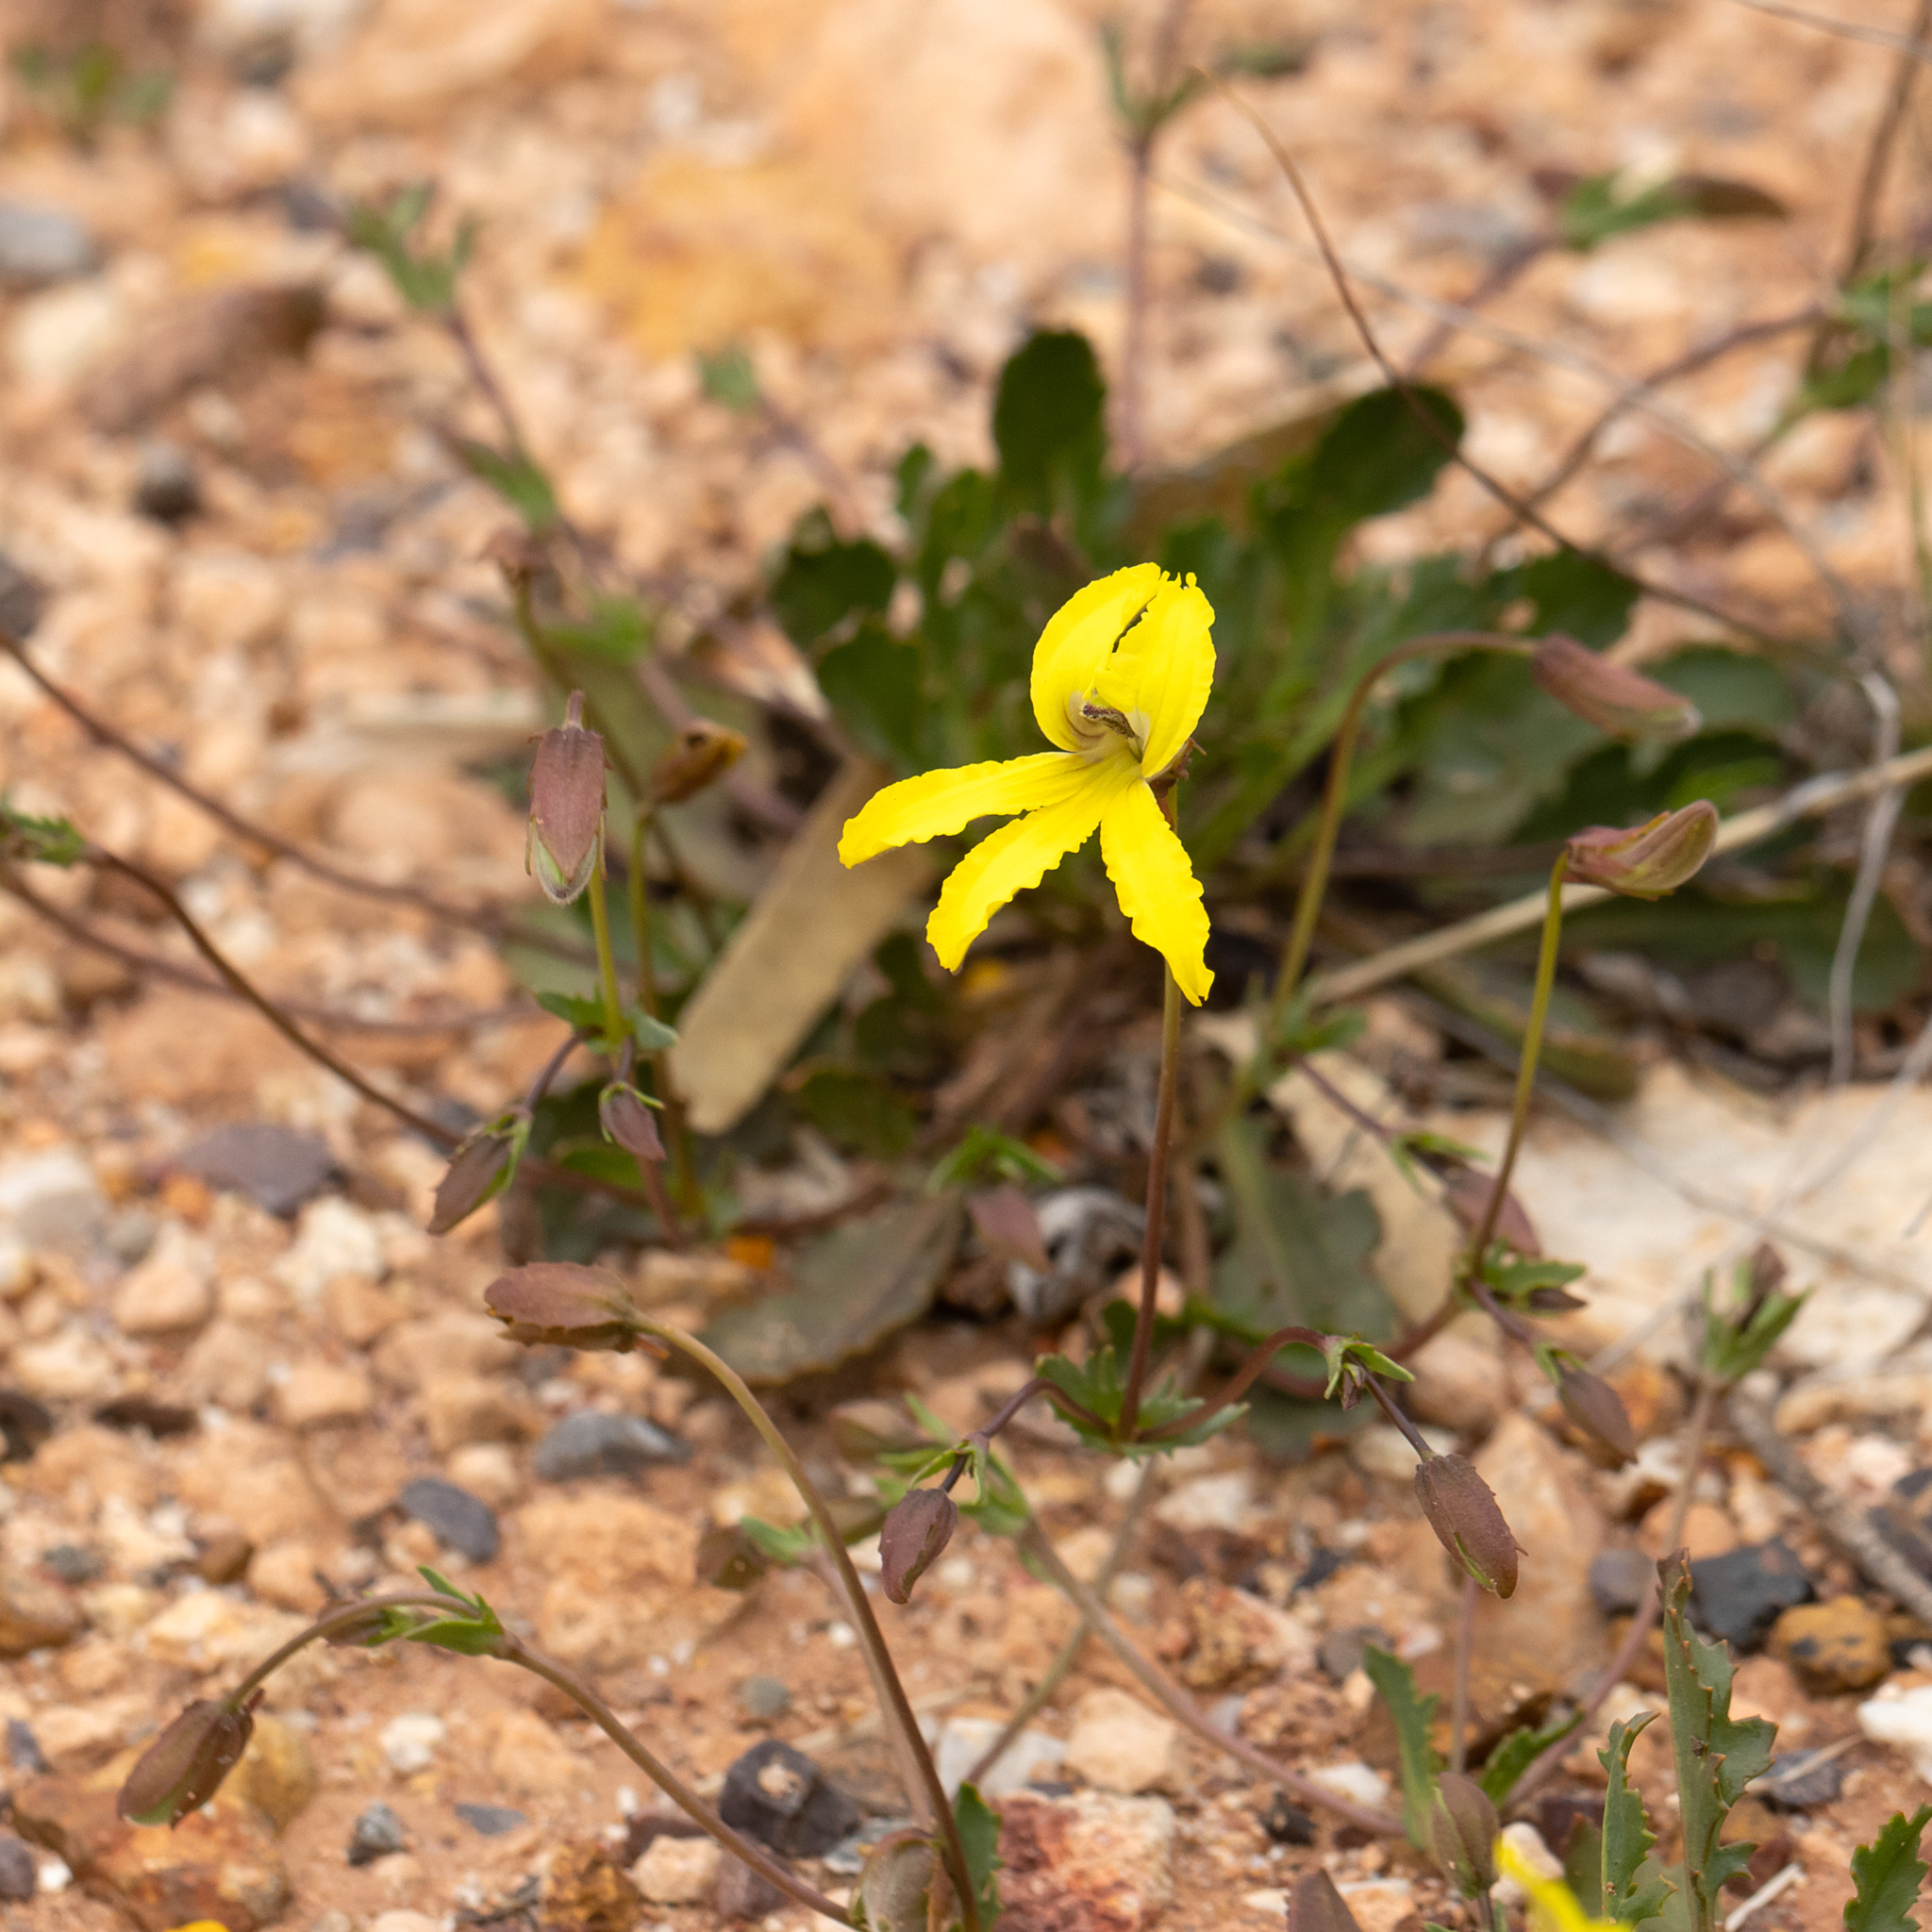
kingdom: Plantae
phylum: Tracheophyta
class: Magnoliopsida
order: Asterales
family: Goodeniaceae
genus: Goodenia
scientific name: Goodenia arguta
